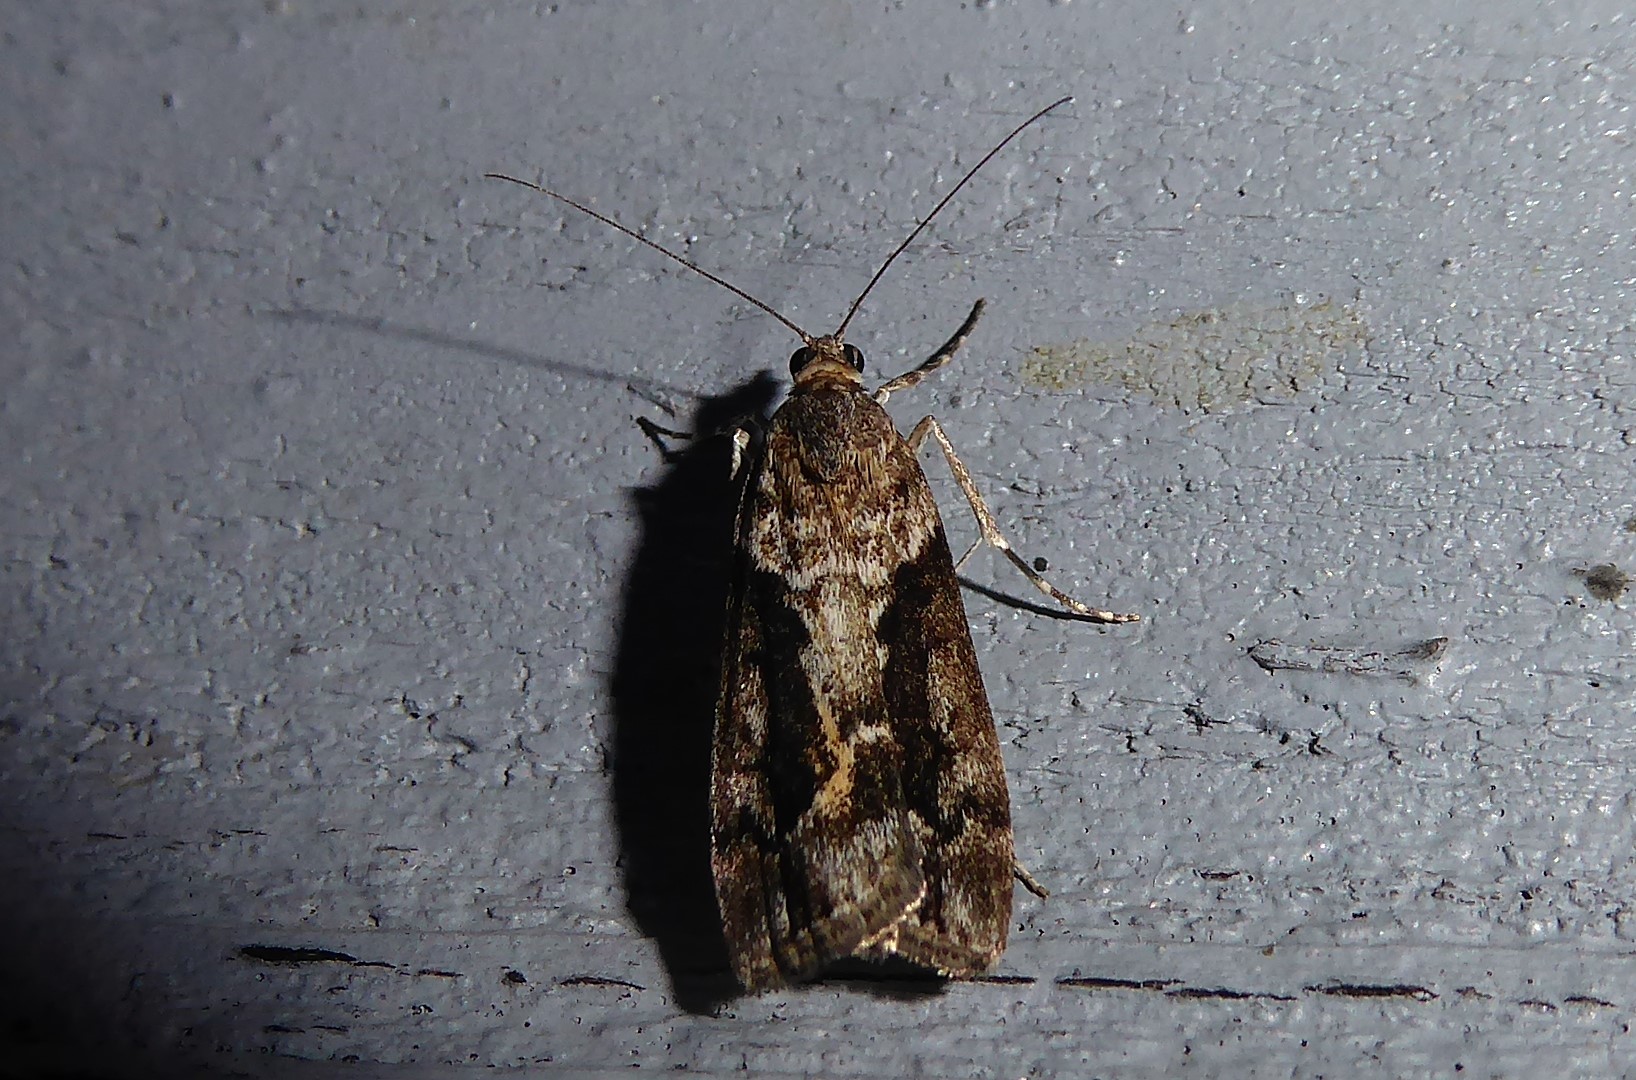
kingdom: Animalia
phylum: Arthropoda
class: Insecta
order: Lepidoptera
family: Crambidae
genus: Eudonia
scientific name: Eudonia submarginalis
